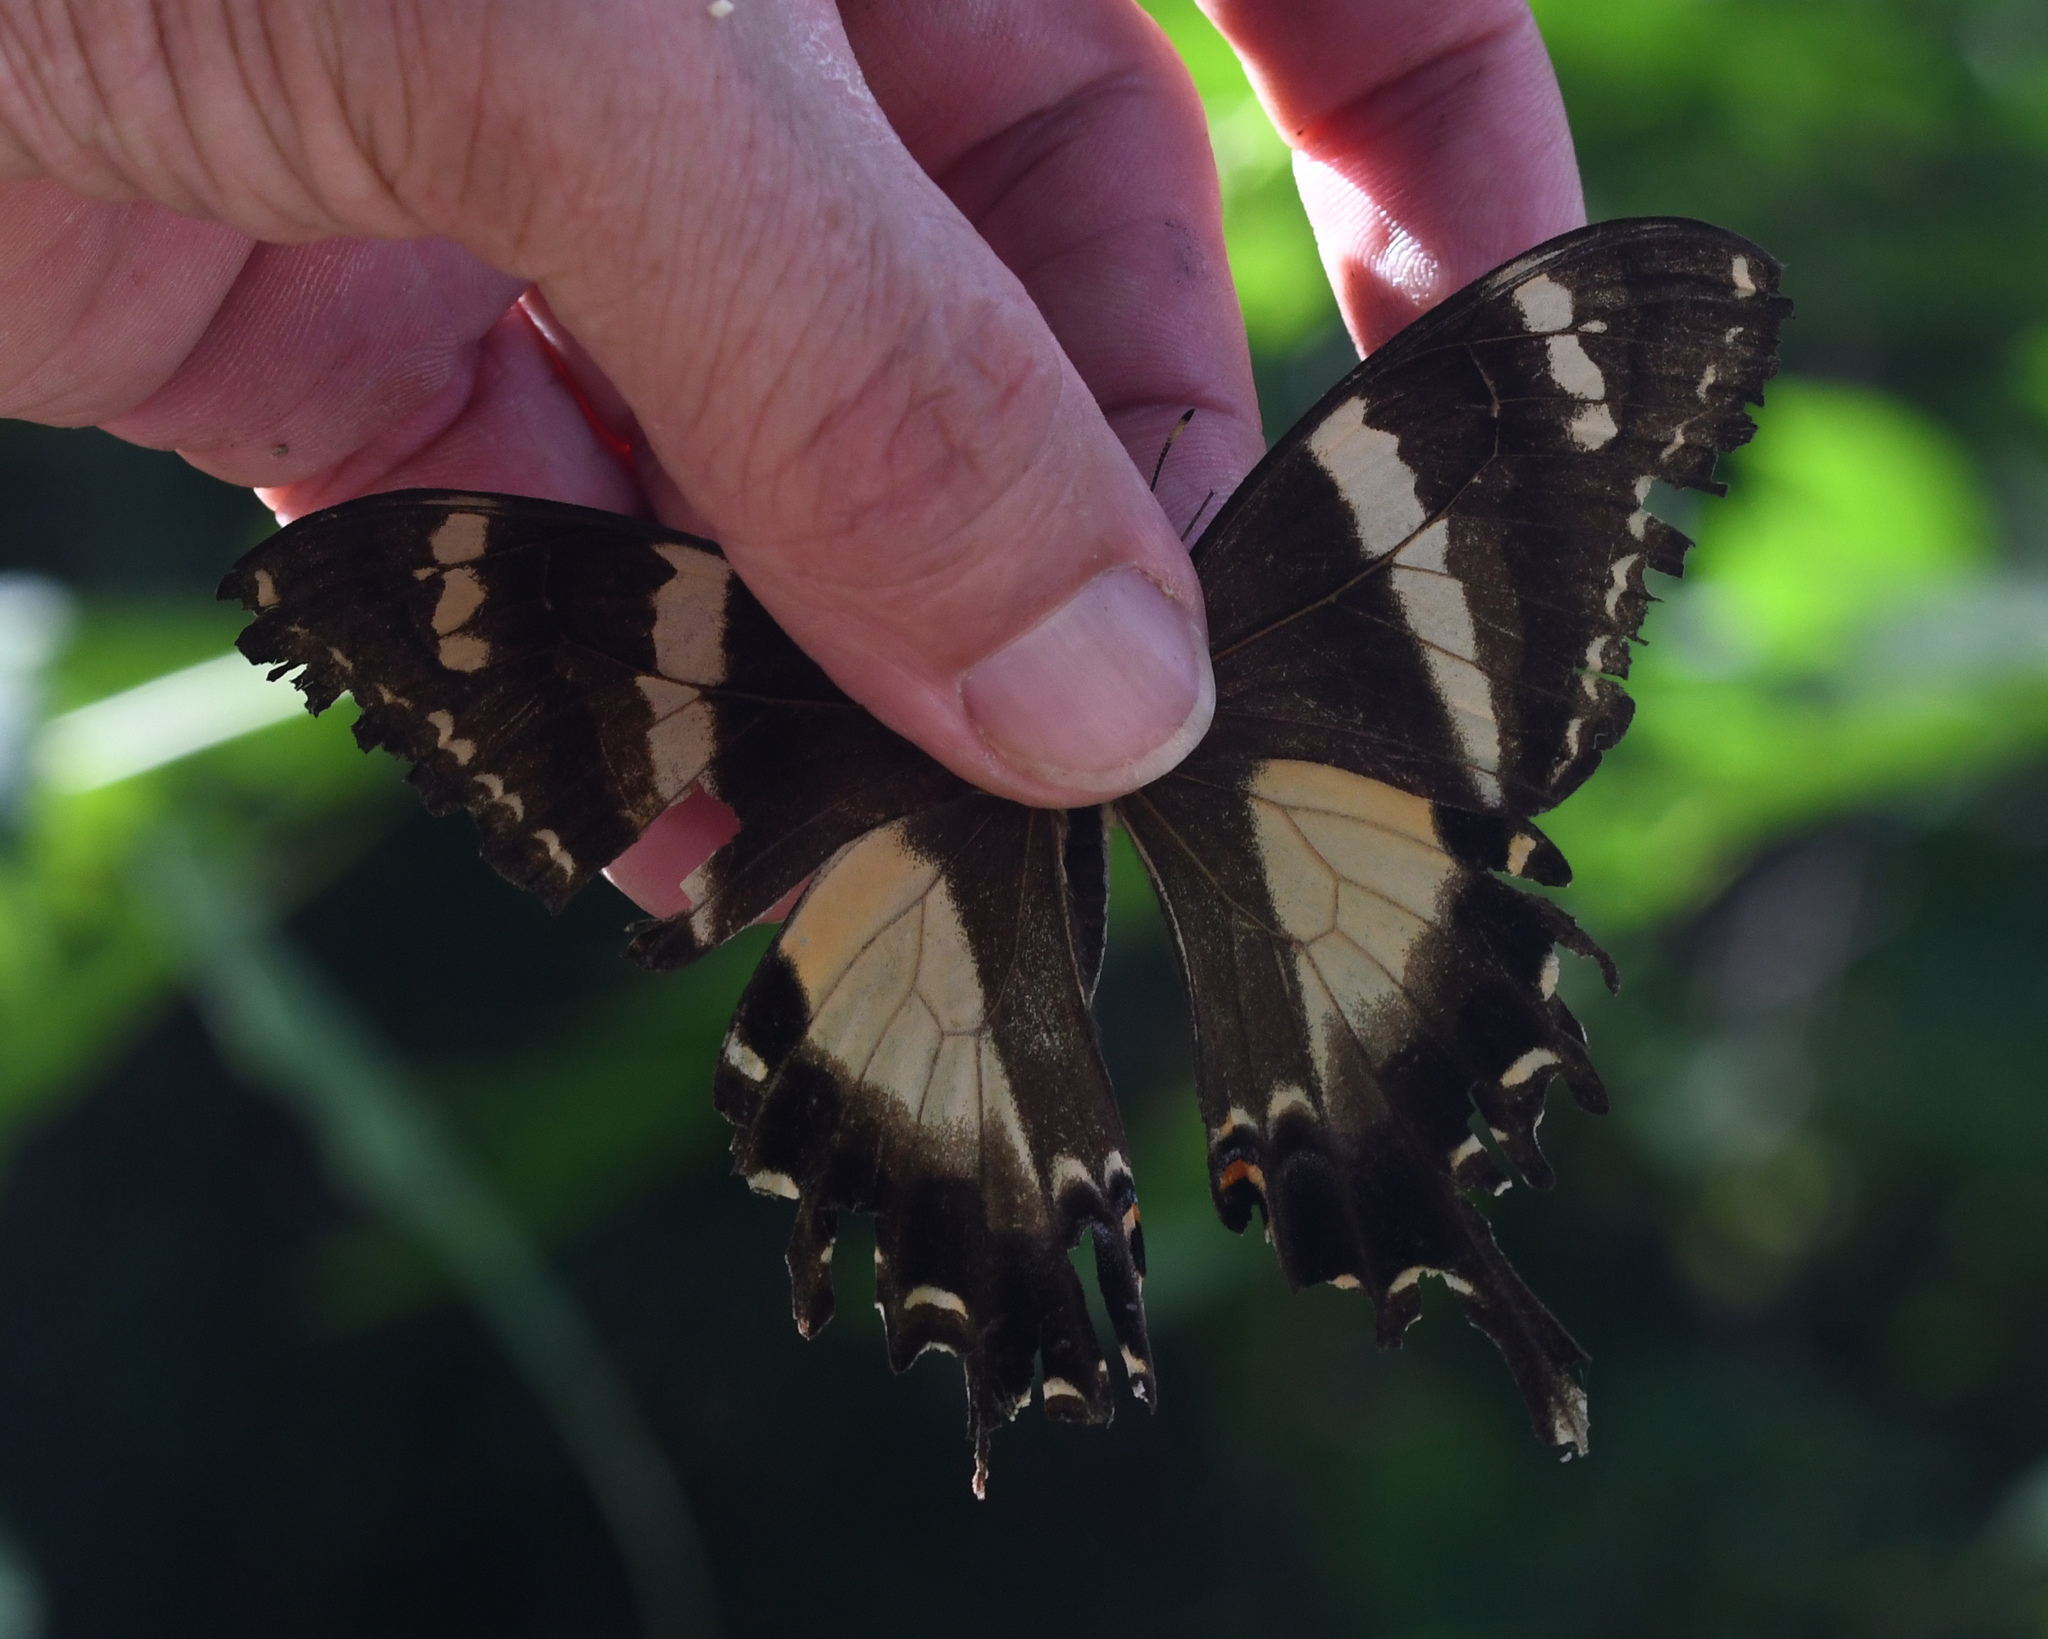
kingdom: Animalia
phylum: Arthropoda
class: Insecta
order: Lepidoptera
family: Papilionidae
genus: Papilio
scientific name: Papilio machaonides
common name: Machaonides swallowtail
